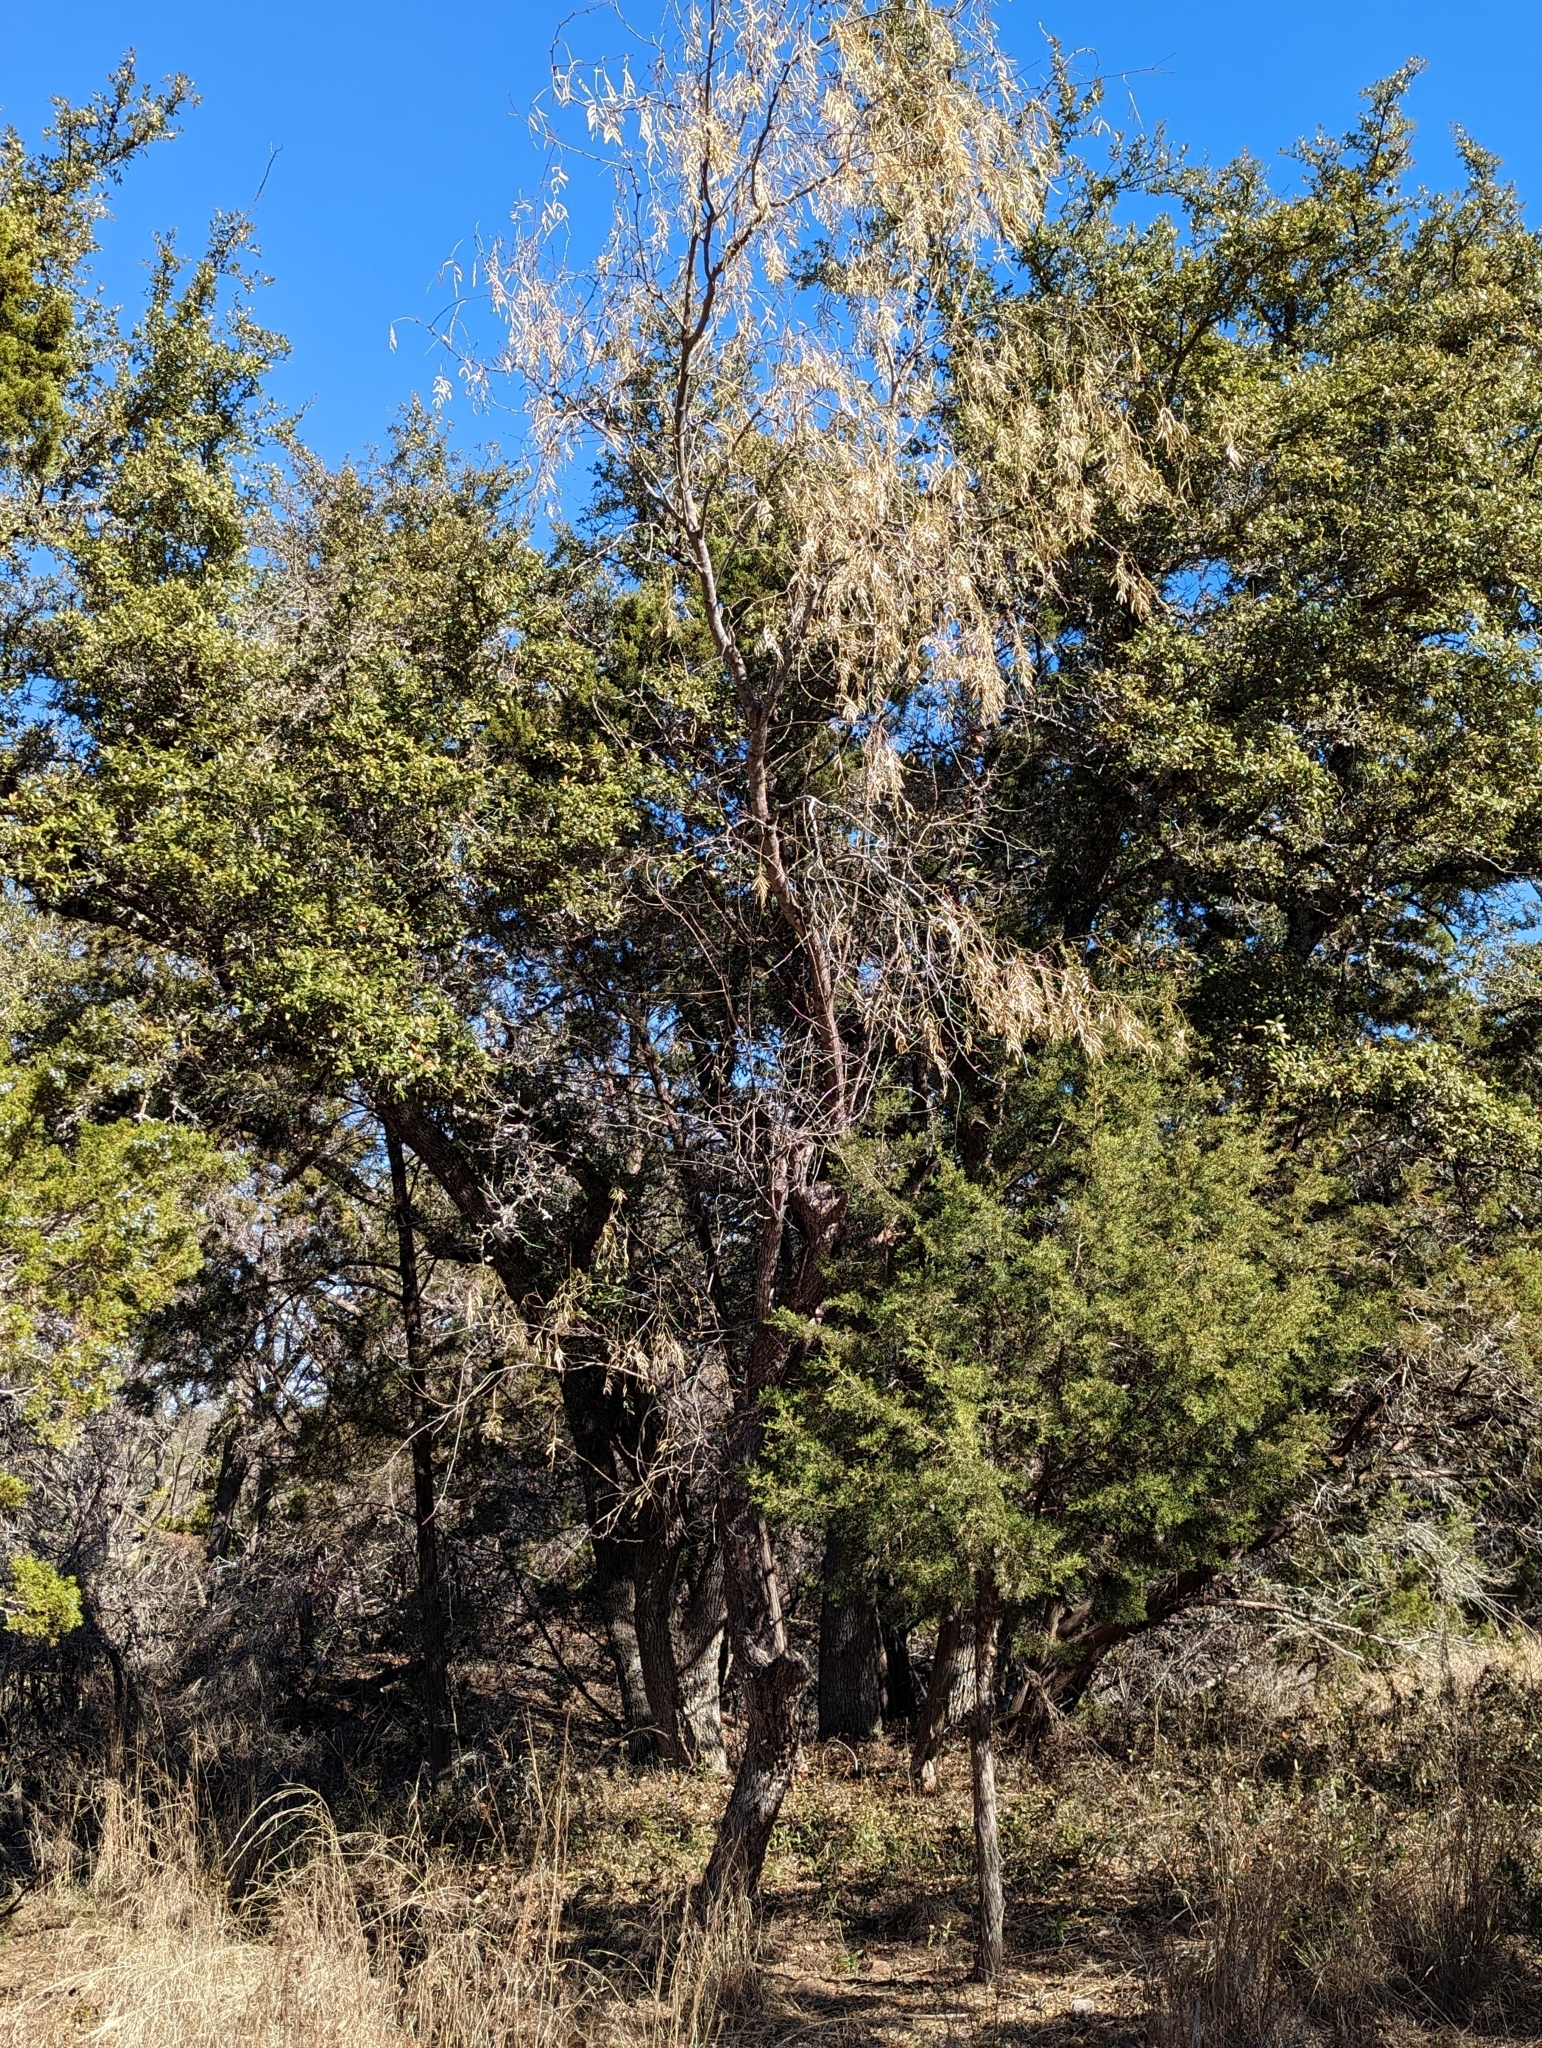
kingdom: Plantae
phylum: Tracheophyta
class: Magnoliopsida
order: Fabales
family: Fabaceae
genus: Prosopis
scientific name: Prosopis glandulosa
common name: Honey mesquite
